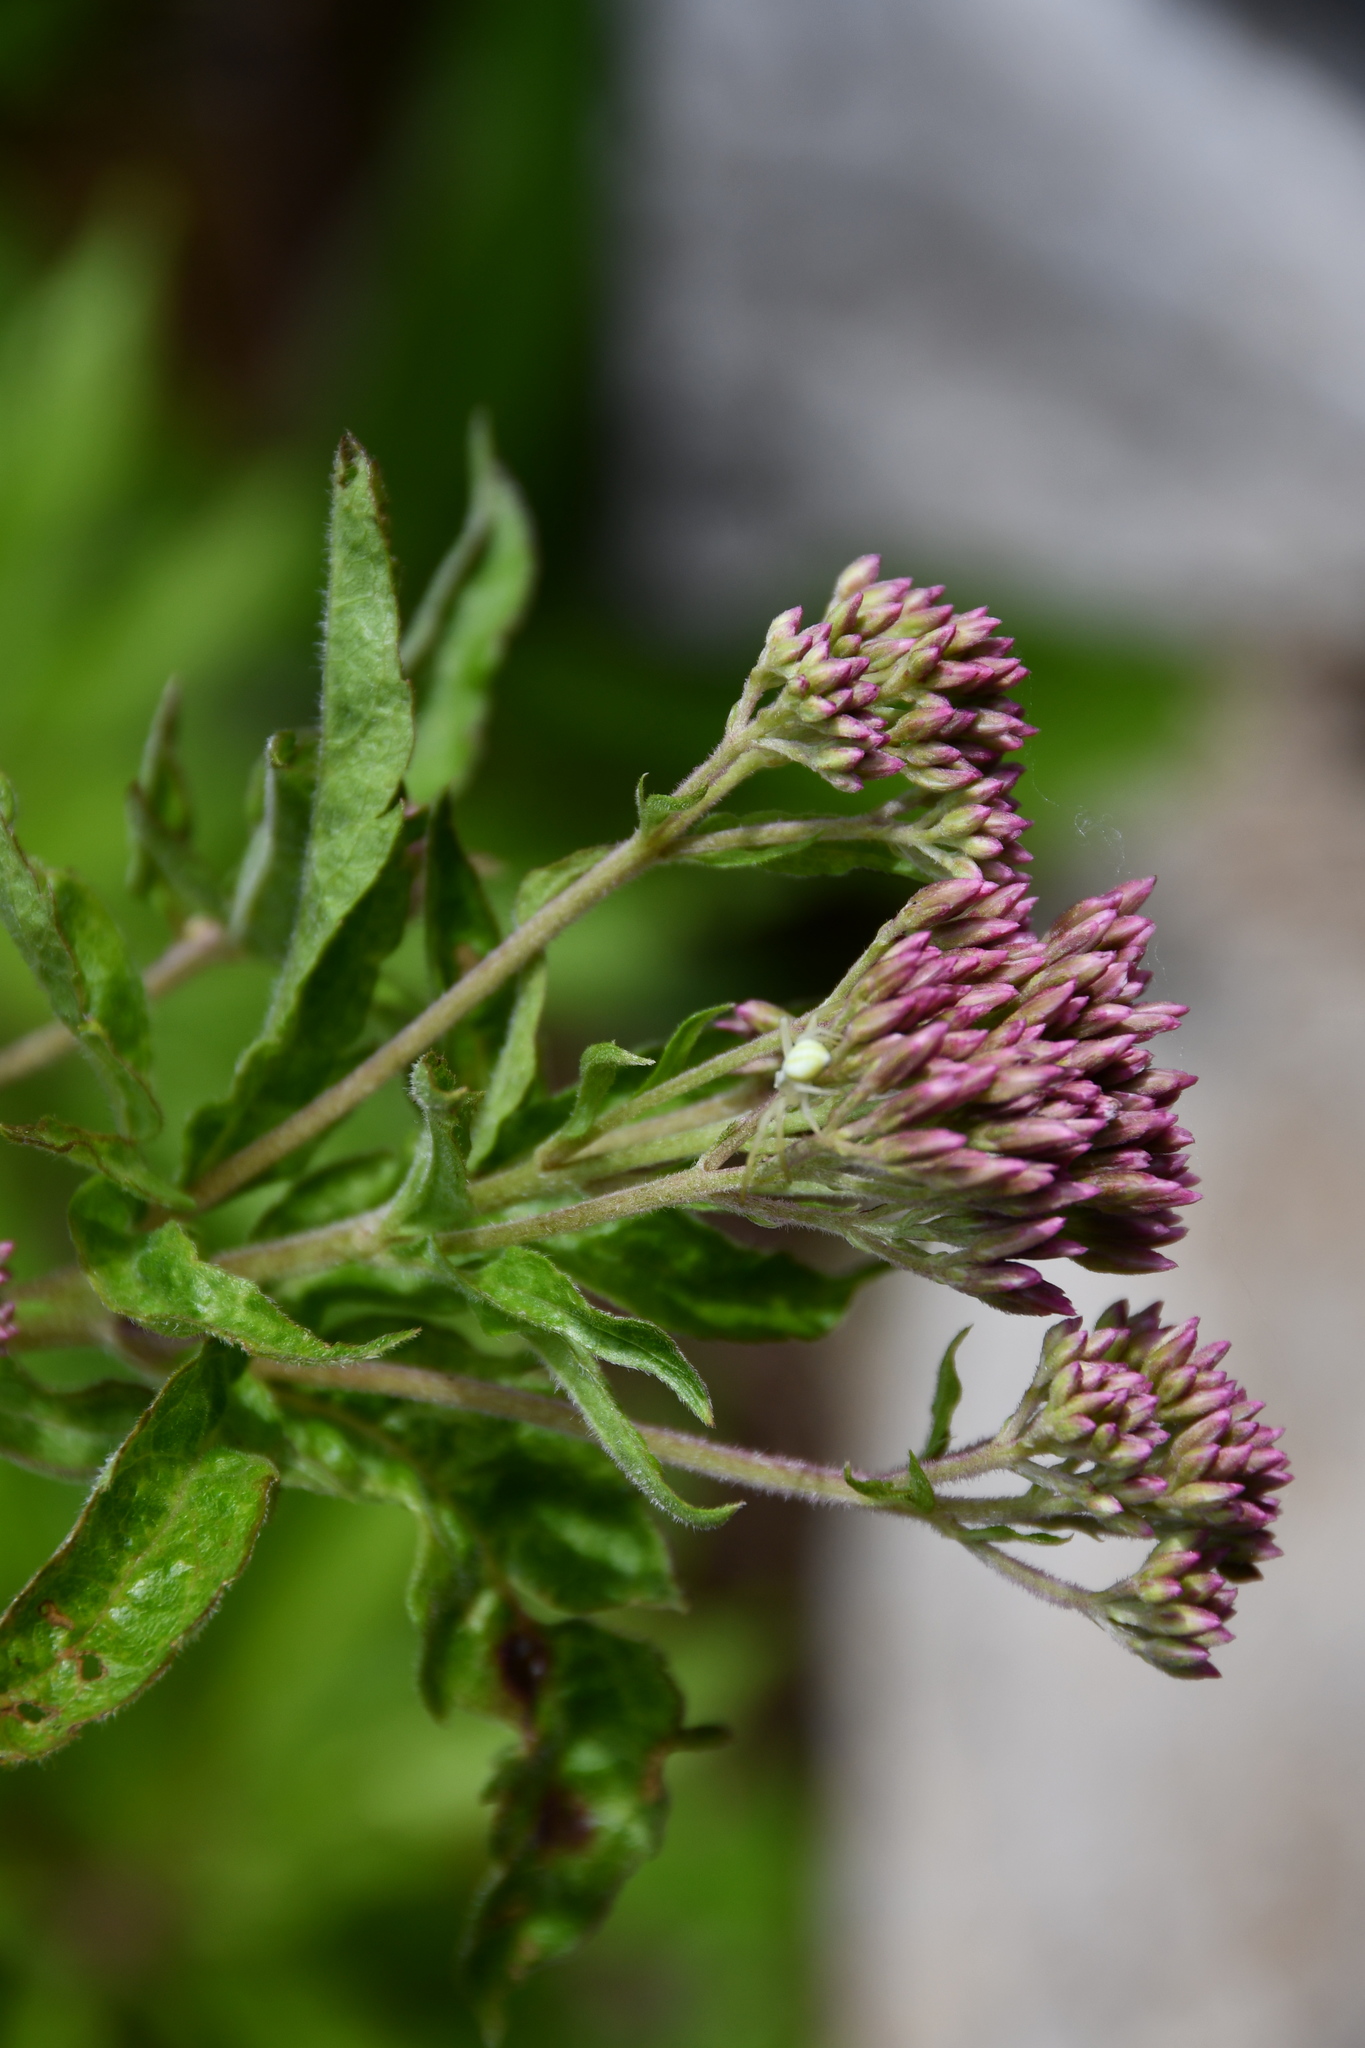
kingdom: Plantae
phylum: Tracheophyta
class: Magnoliopsida
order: Asterales
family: Asteraceae
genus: Eupatorium
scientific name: Eupatorium cannabinum
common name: Hemp-agrimony
